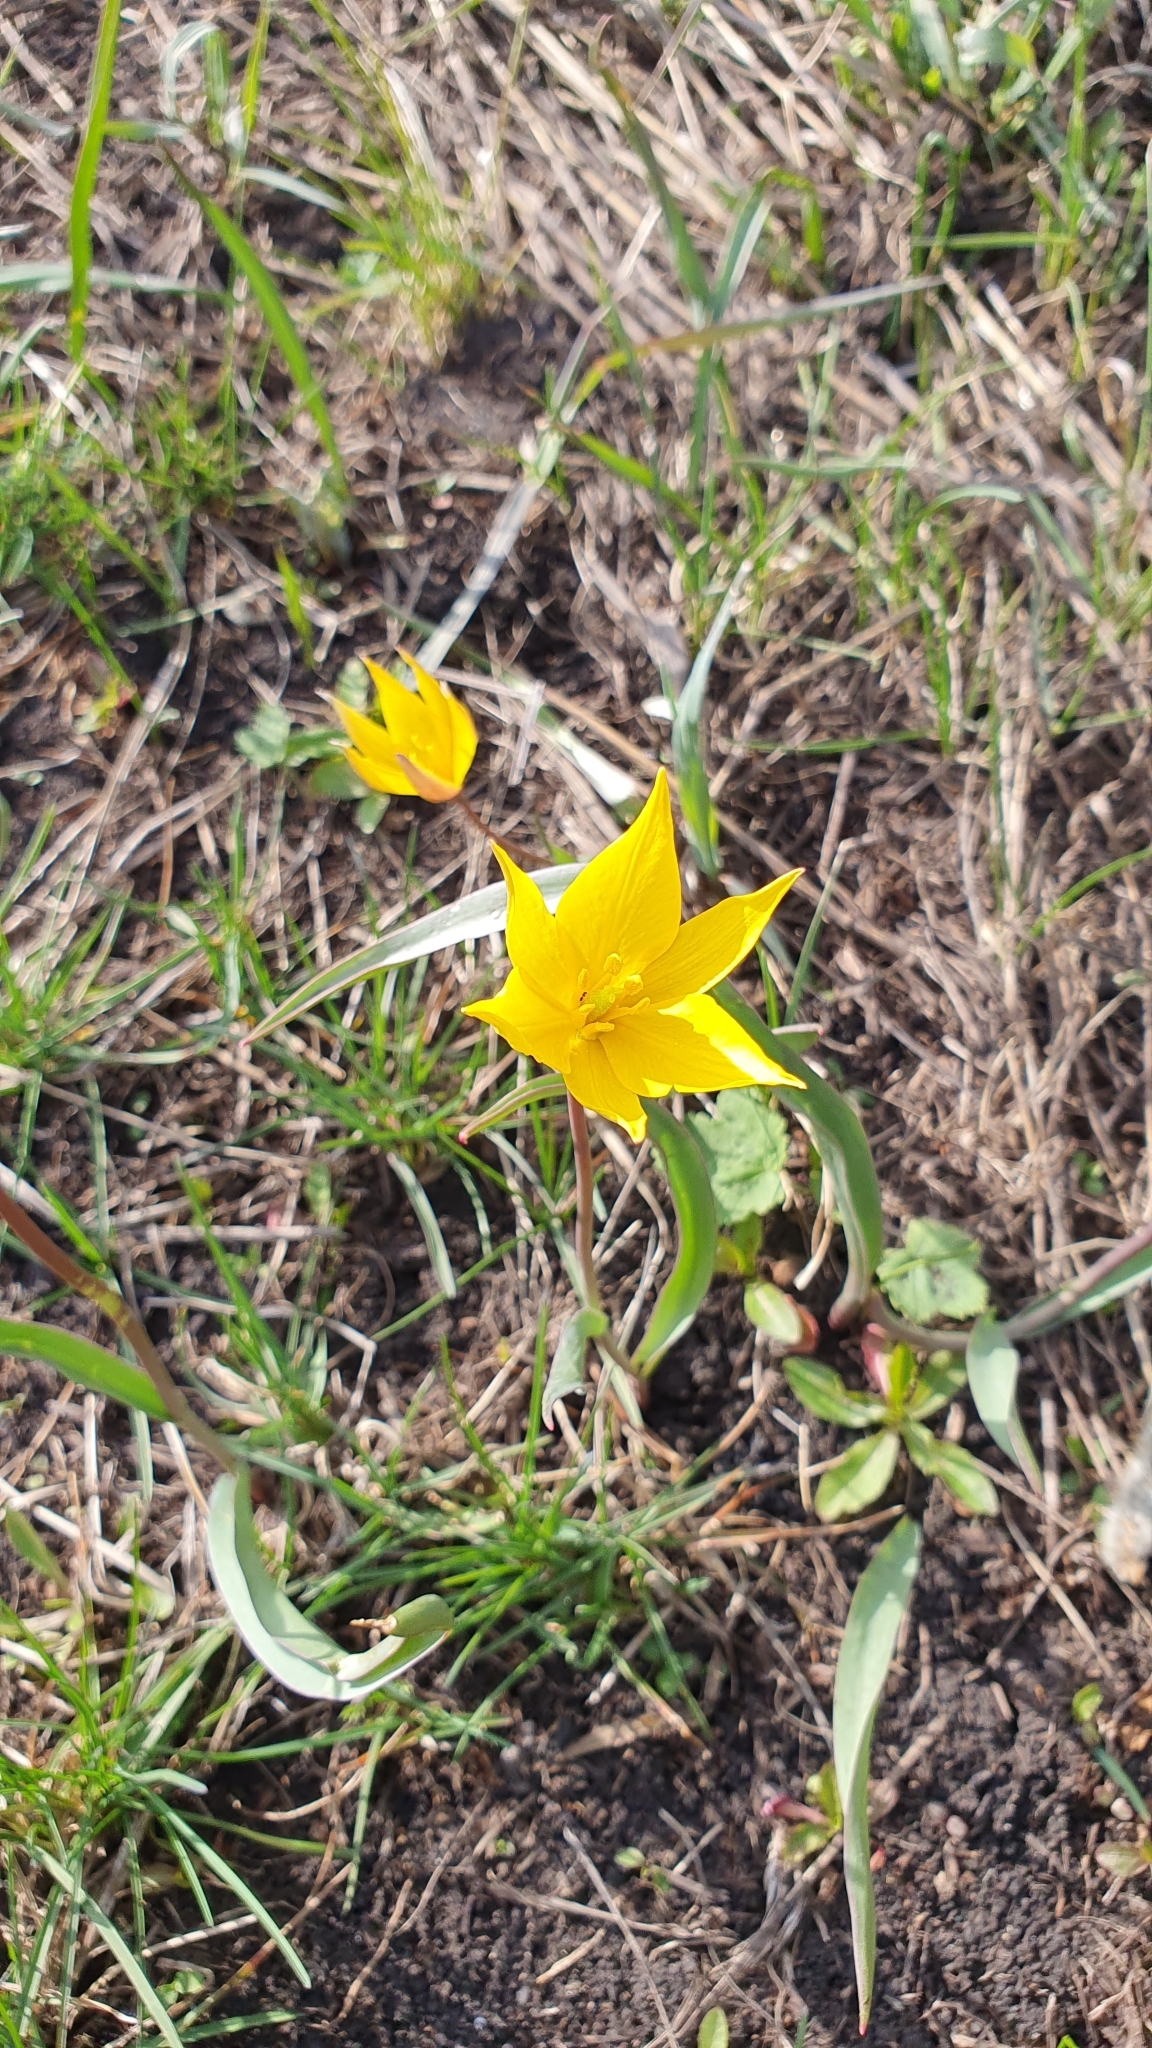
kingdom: Plantae
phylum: Tracheophyta
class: Liliopsida
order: Liliales
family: Liliaceae
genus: Tulipa
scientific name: Tulipa sylvestris
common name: Wild tulip
